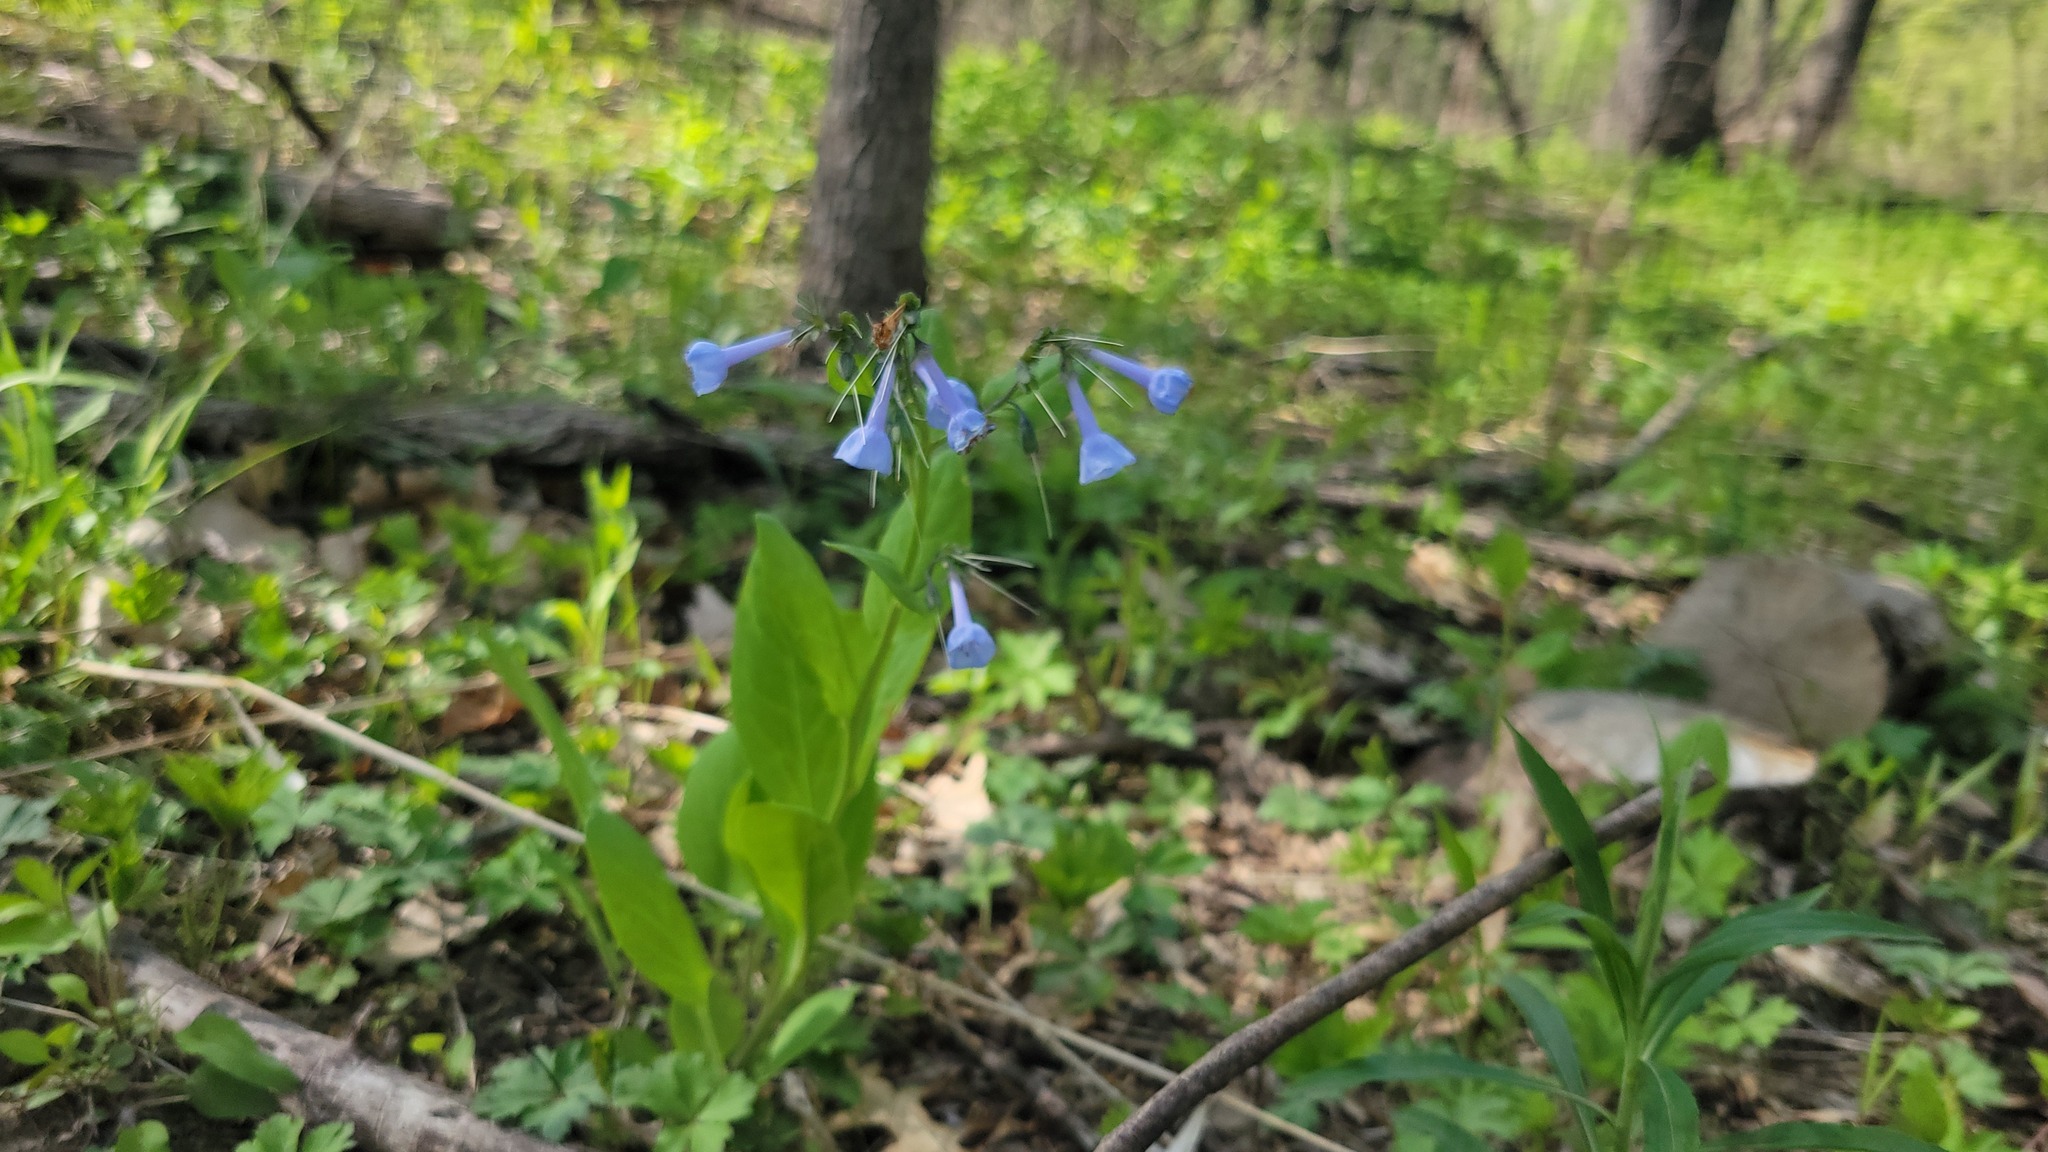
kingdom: Plantae
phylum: Tracheophyta
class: Magnoliopsida
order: Boraginales
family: Boraginaceae
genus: Mertensia
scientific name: Mertensia virginica
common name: Virginia bluebells
